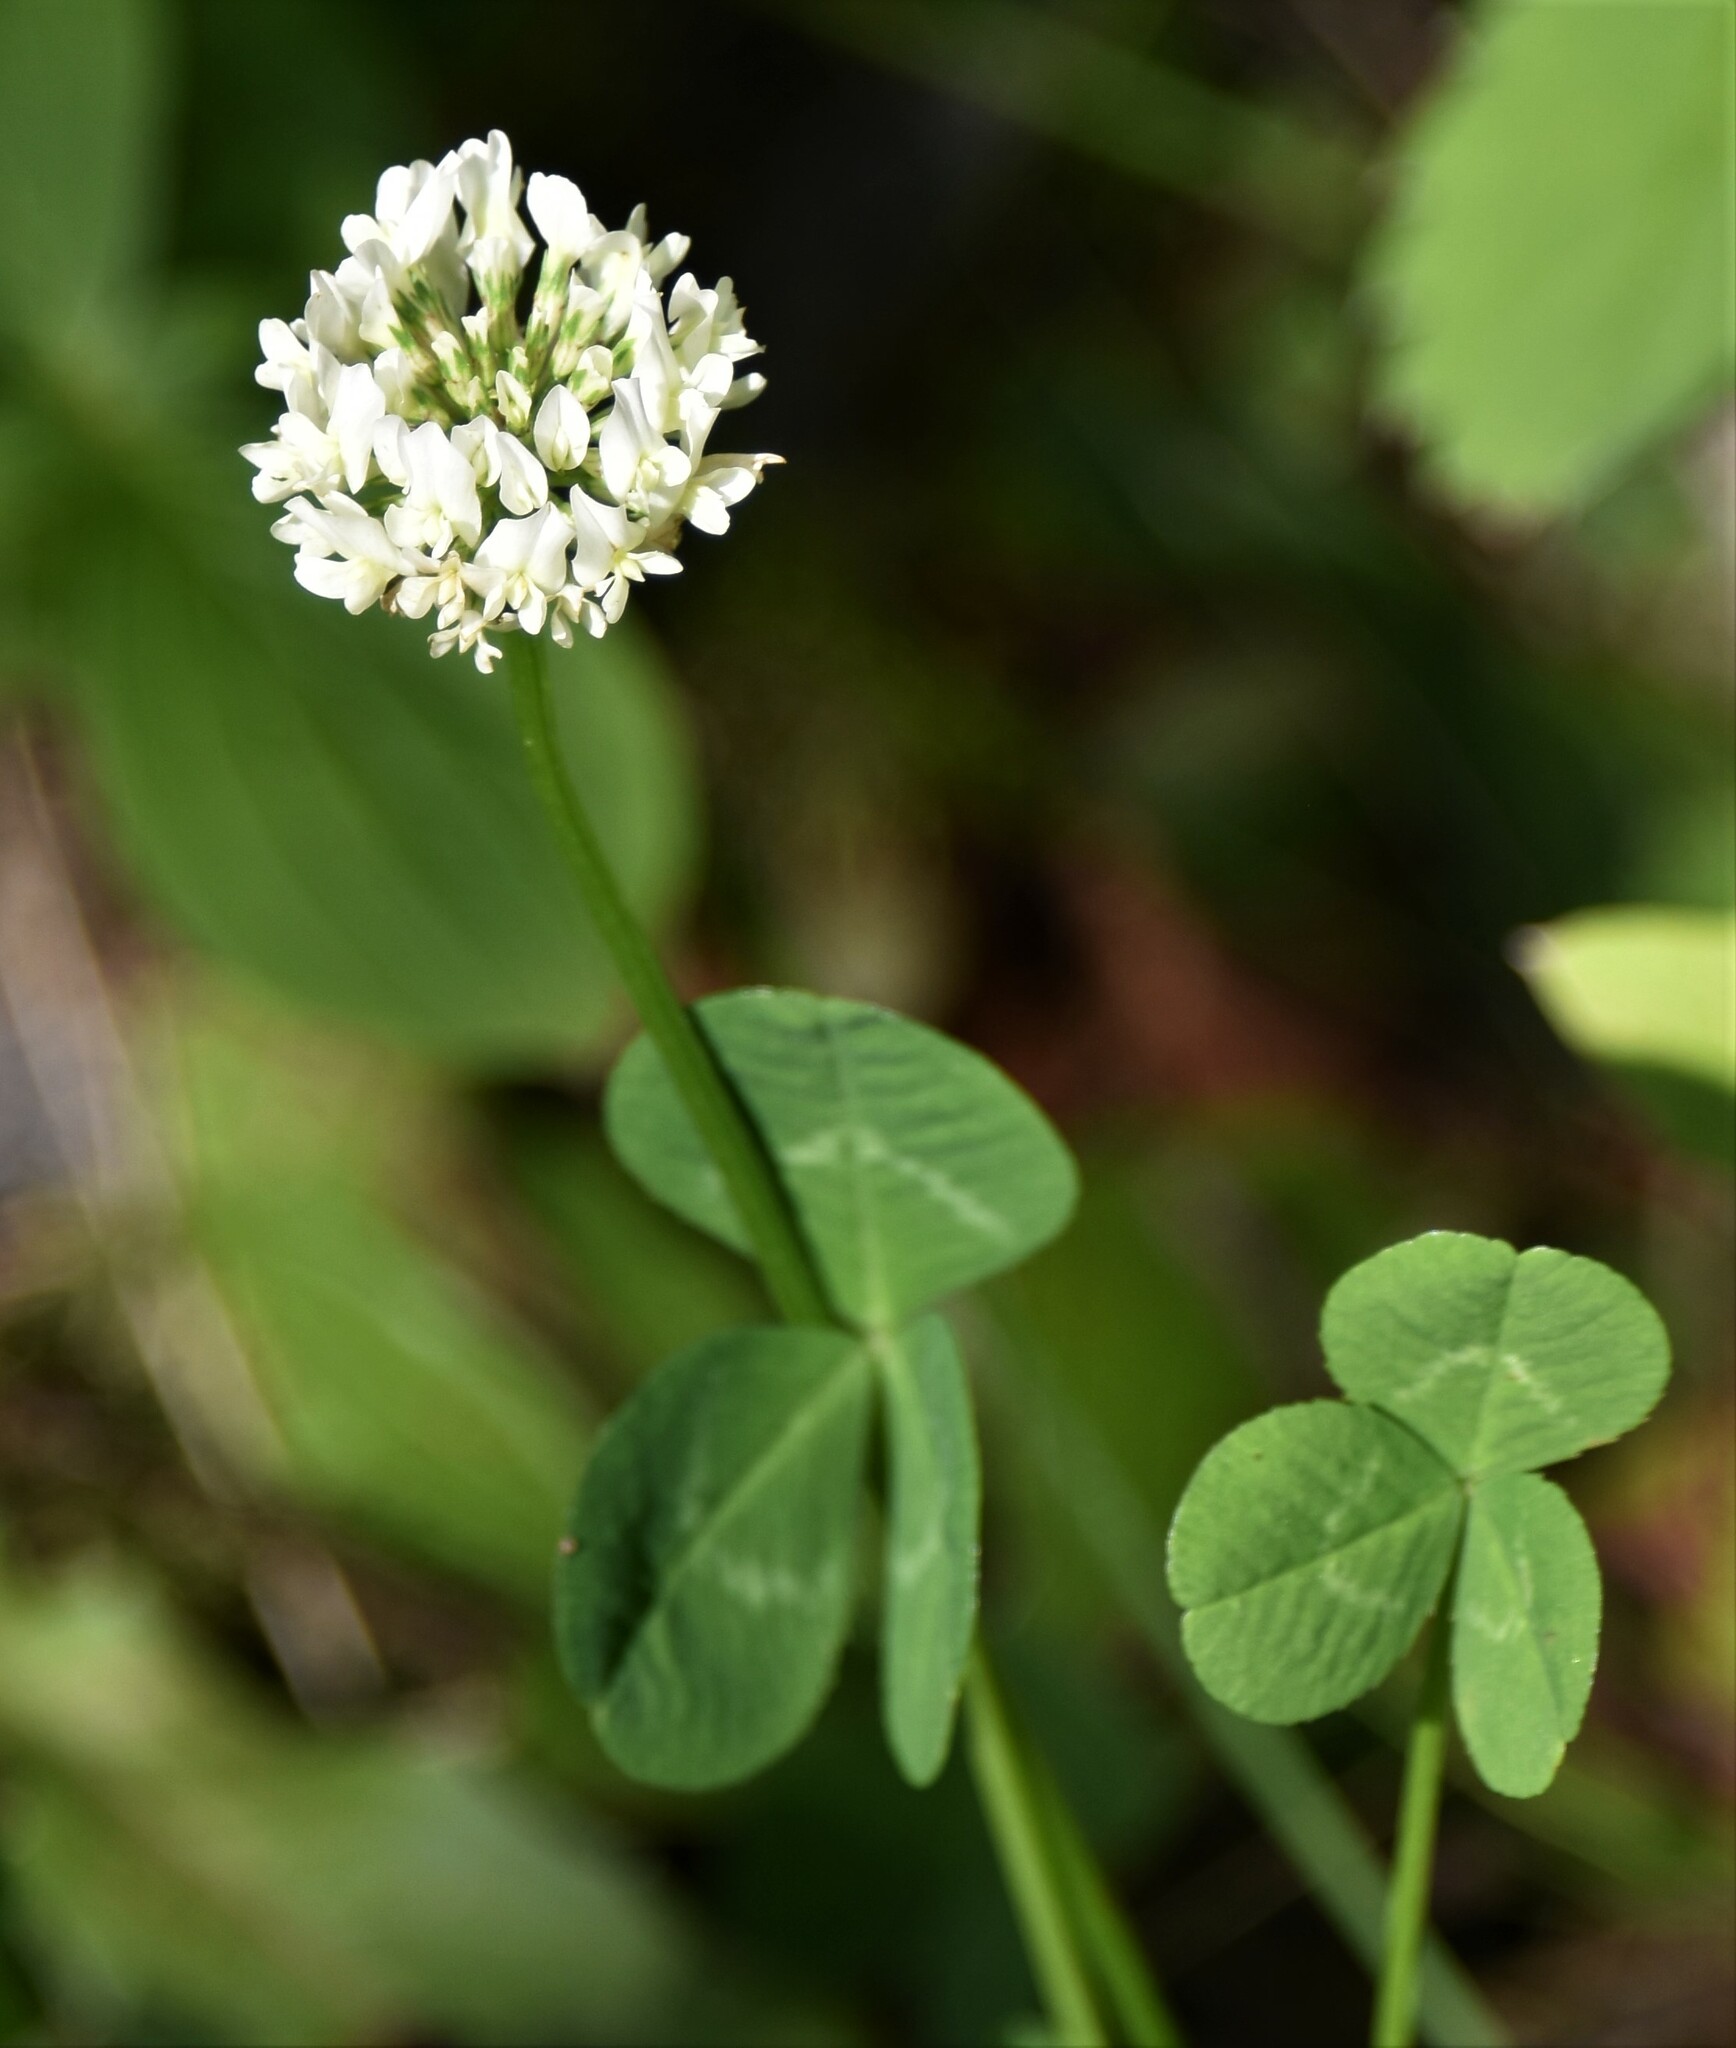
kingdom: Plantae
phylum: Tracheophyta
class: Magnoliopsida
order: Fabales
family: Fabaceae
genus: Trifolium
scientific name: Trifolium repens
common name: White clover
